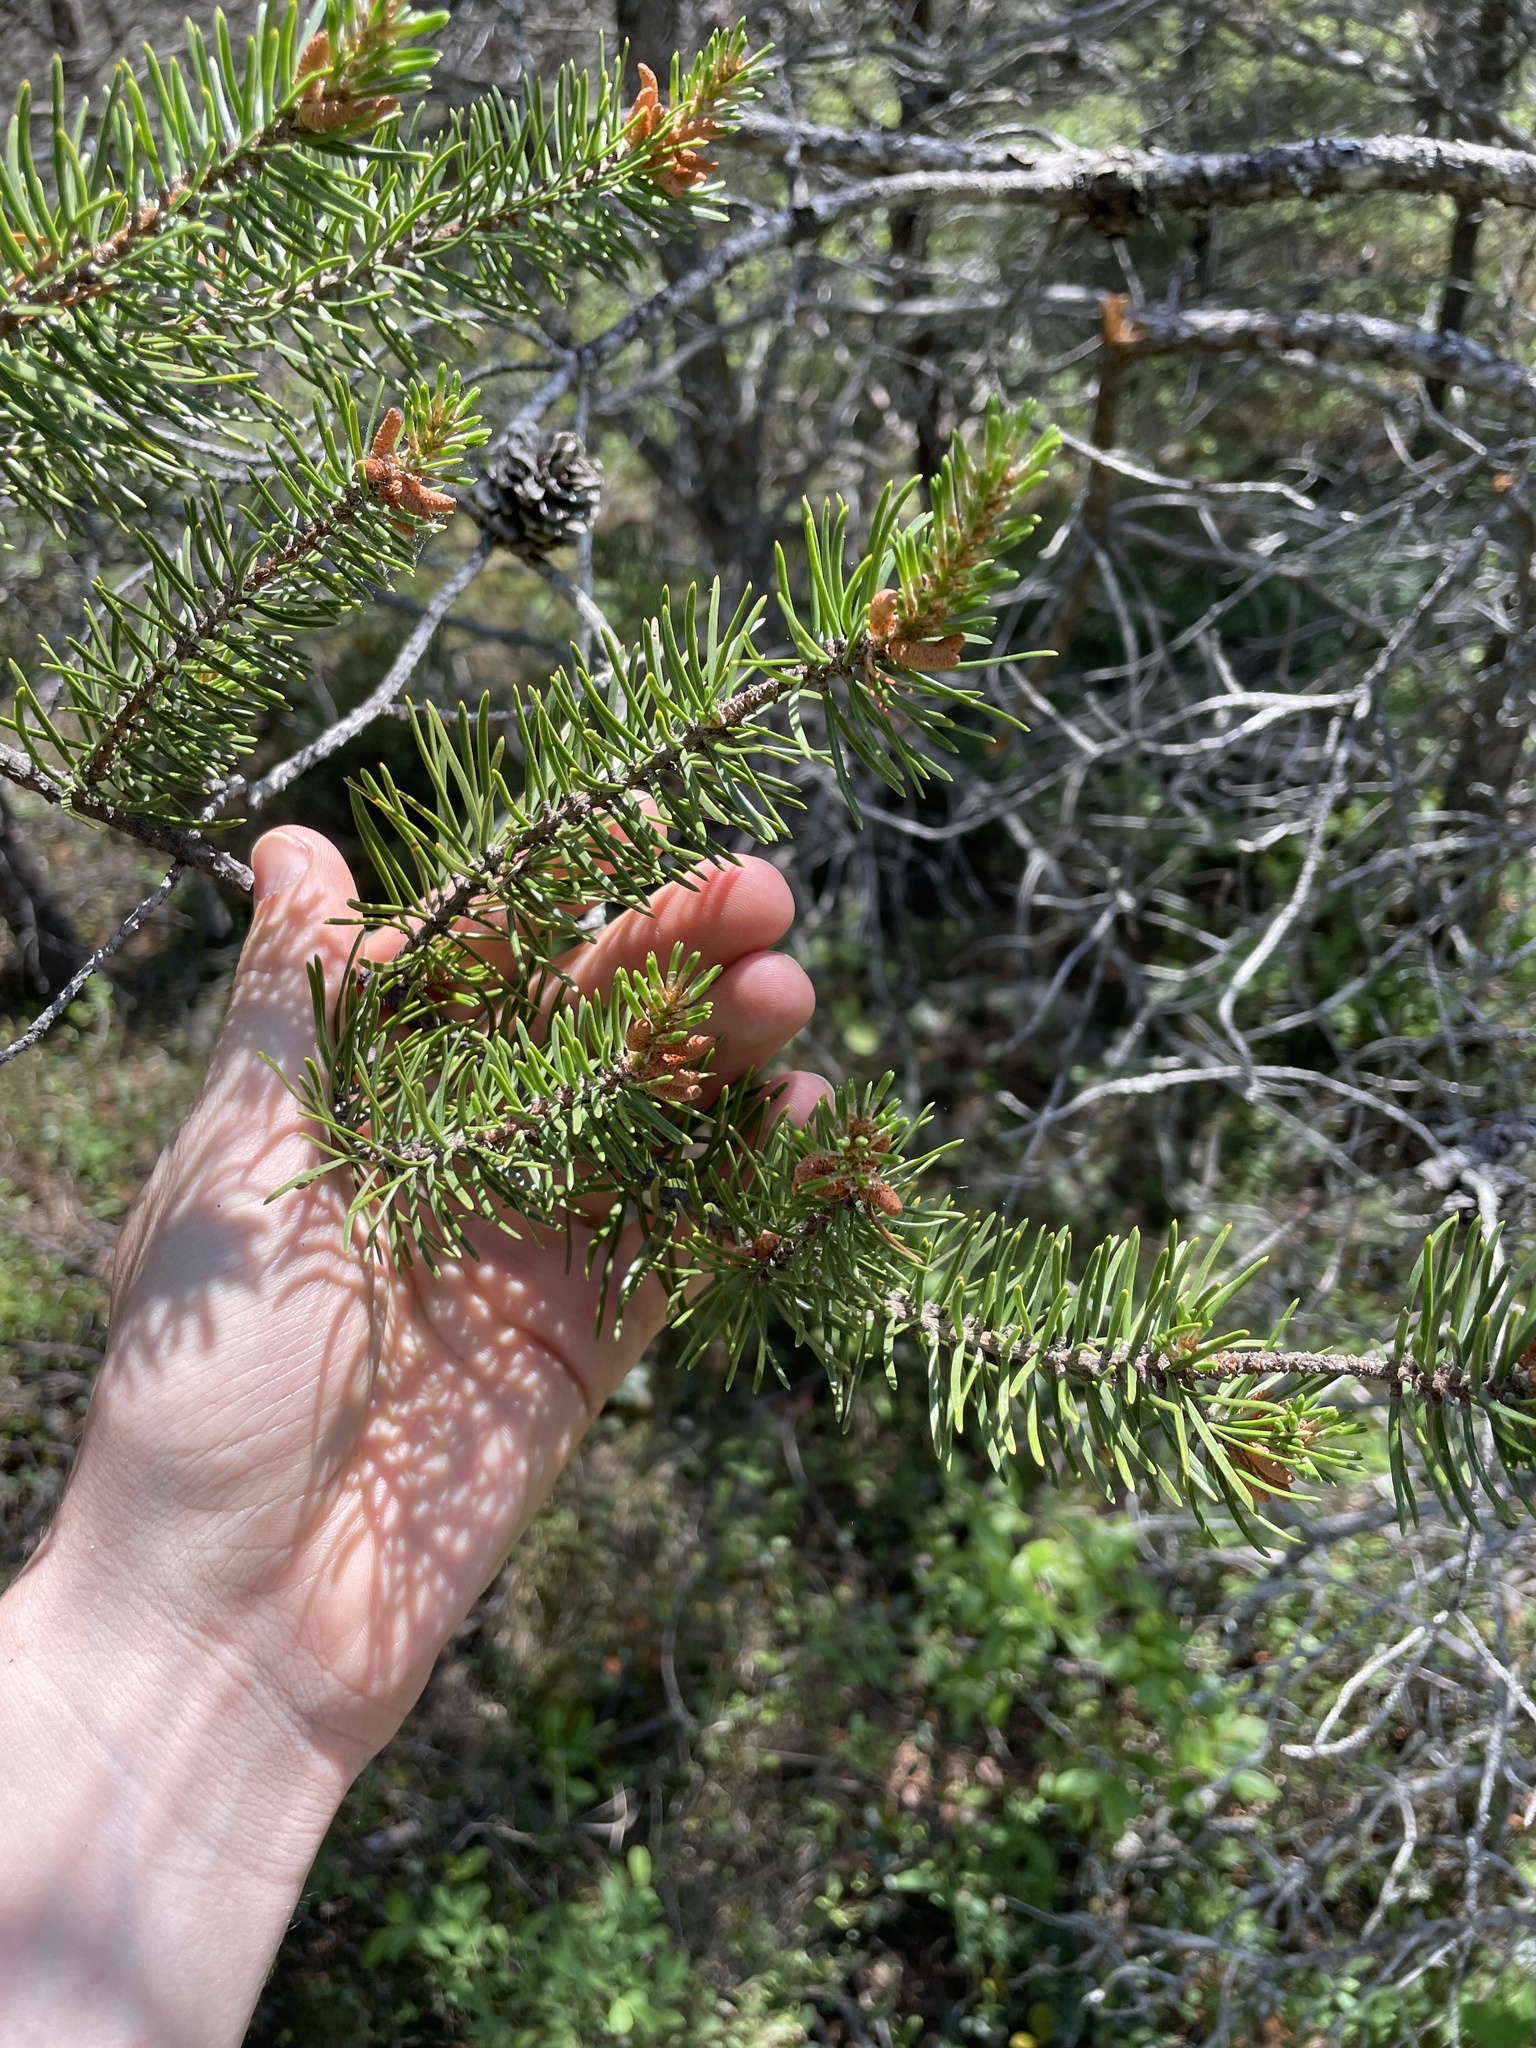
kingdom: Plantae
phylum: Tracheophyta
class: Pinopsida
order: Pinales
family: Pinaceae
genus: Pinus
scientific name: Pinus banksiana
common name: Jack pine
